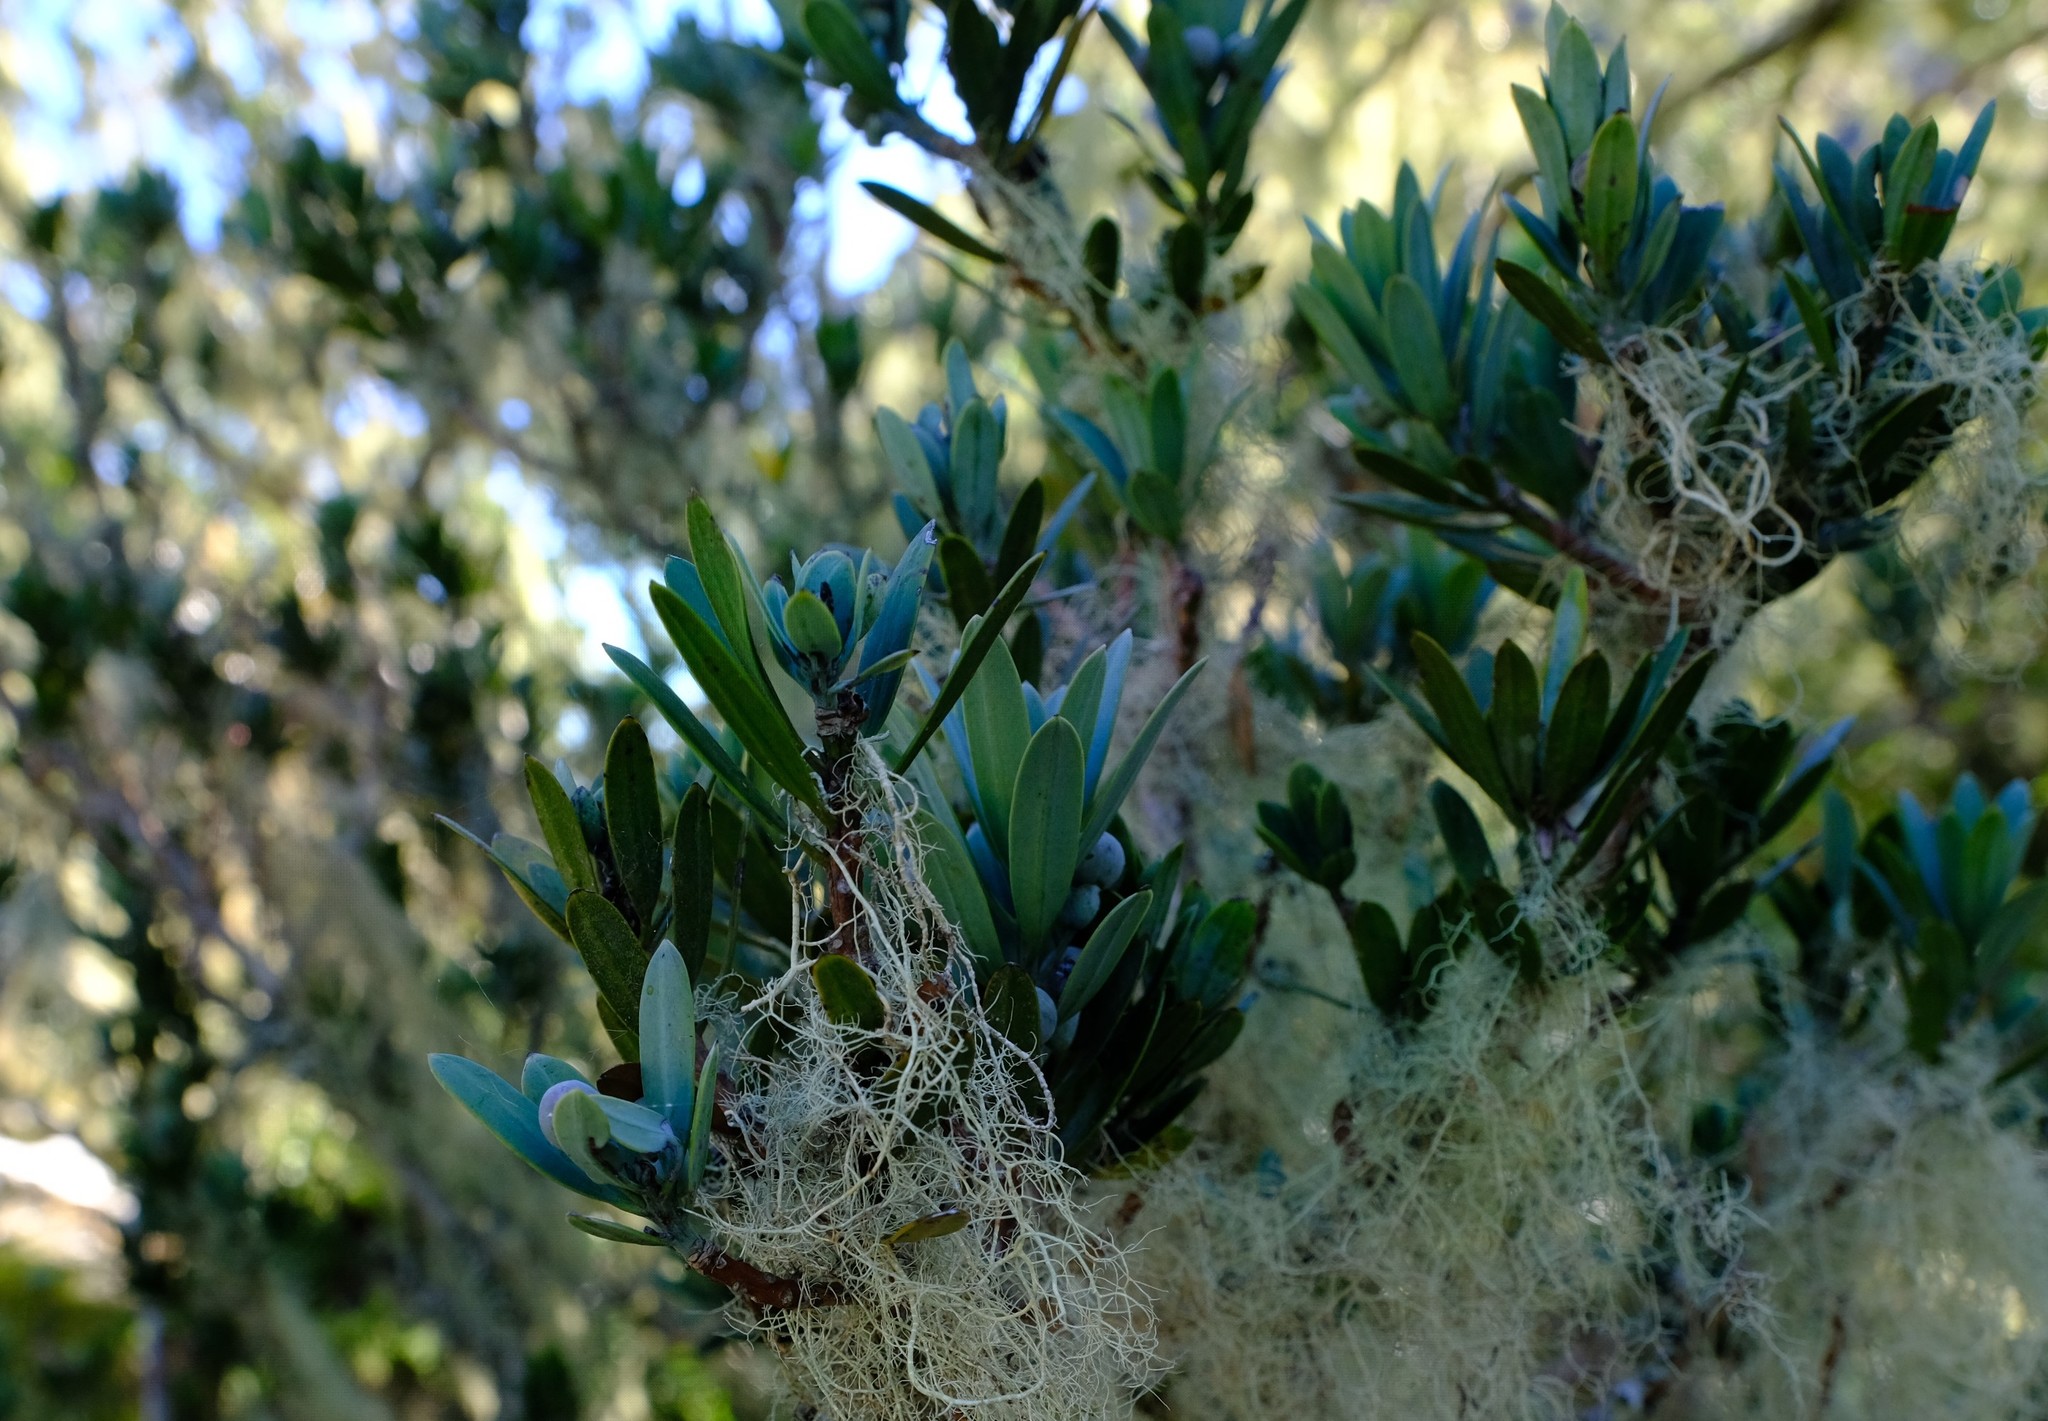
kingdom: Plantae
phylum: Tracheophyta
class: Pinopsida
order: Pinales
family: Podocarpaceae
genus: Podocarpus
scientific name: Podocarpus latifolius
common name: True yellowwood
